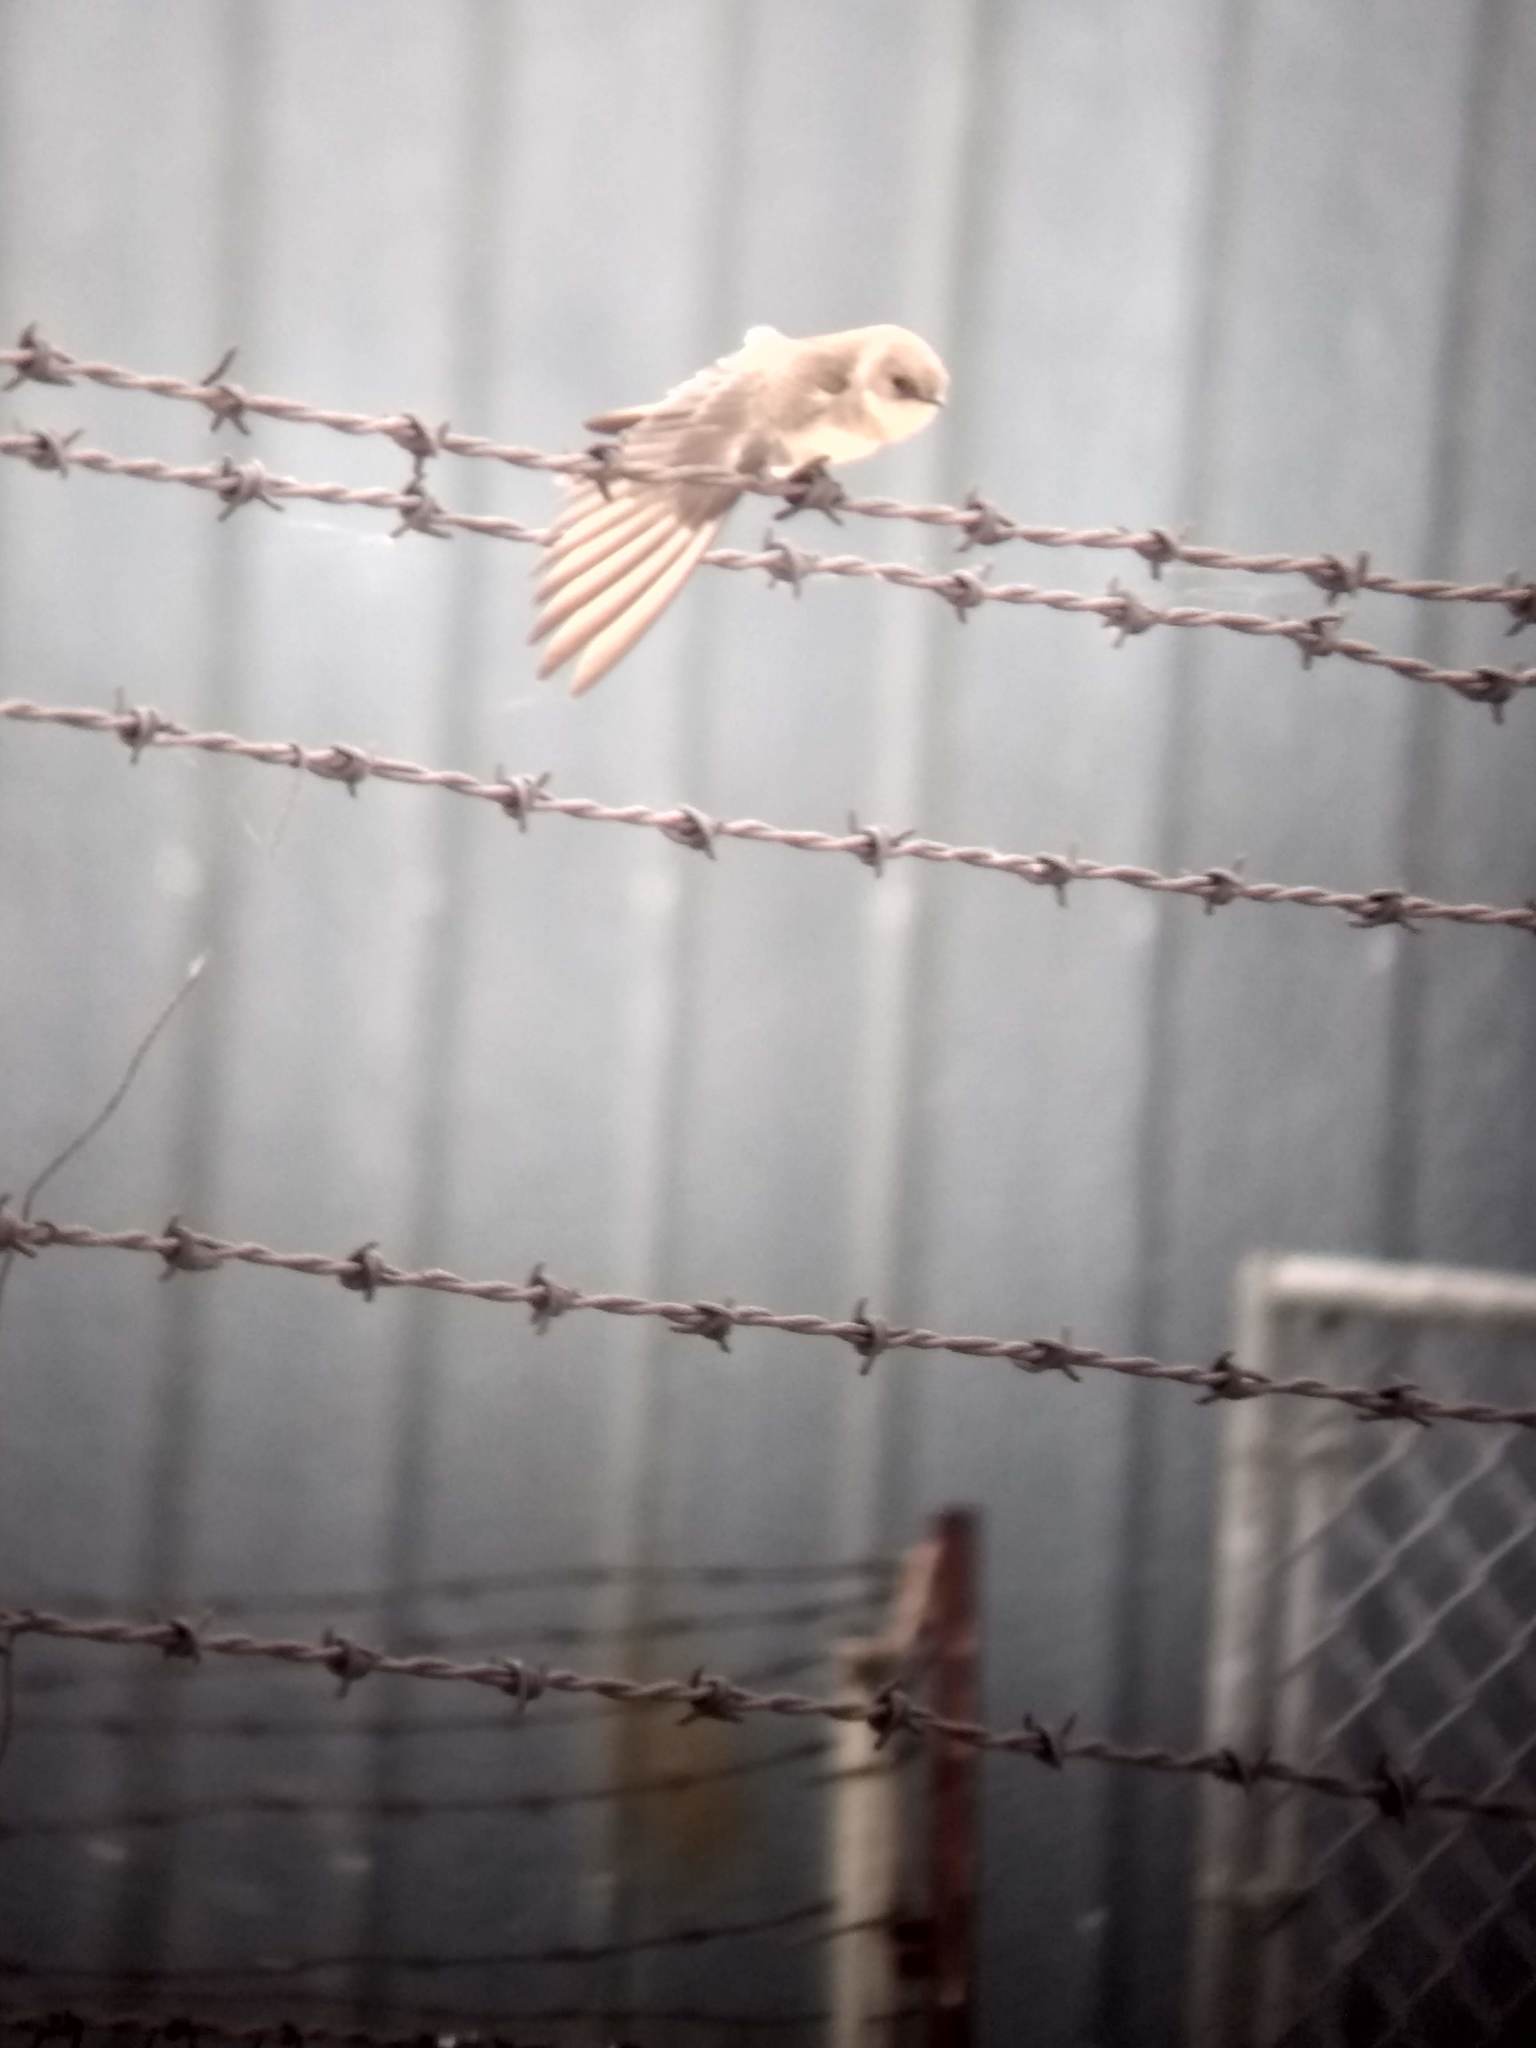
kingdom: Animalia
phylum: Chordata
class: Aves
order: Passeriformes
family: Hirundinidae
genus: Stelgidopteryx
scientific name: Stelgidopteryx serripennis
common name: Northern rough-winged swallow
